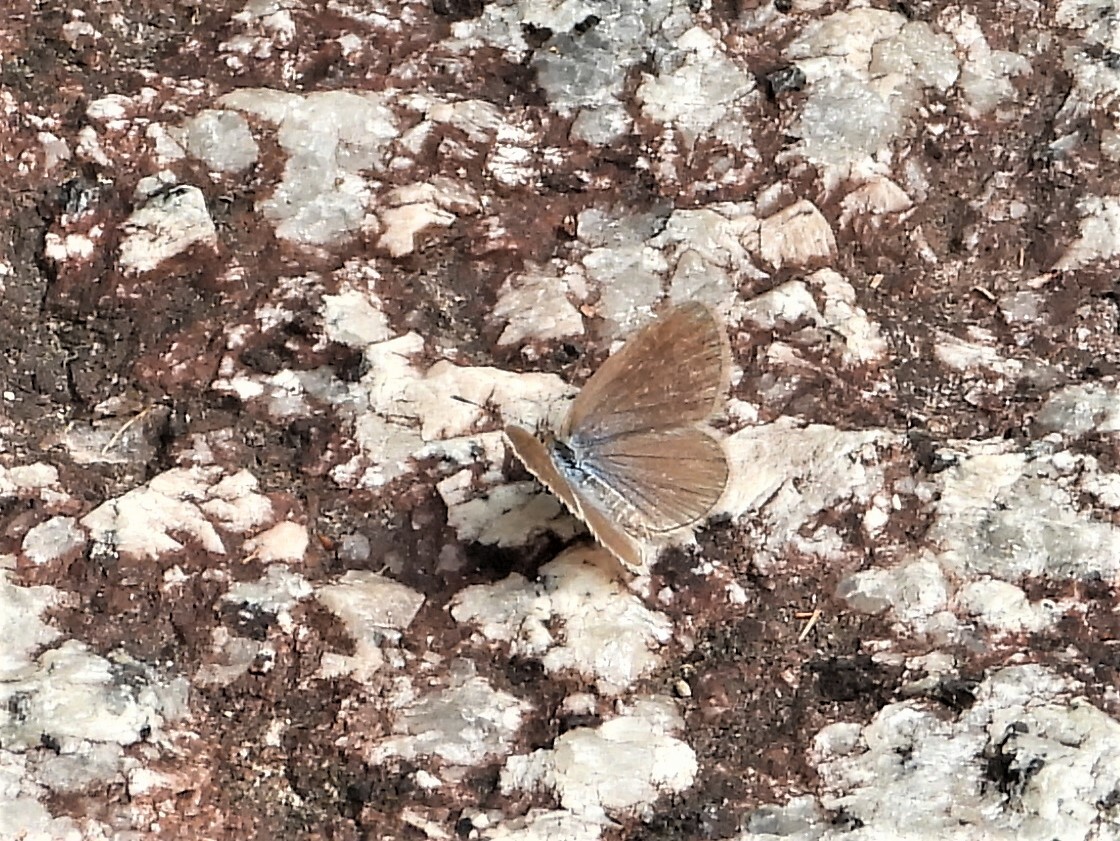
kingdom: Animalia
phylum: Arthropoda
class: Insecta
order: Lepidoptera
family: Lycaenidae
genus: Zizina
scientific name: Zizina otis
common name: Lesser grass blue
